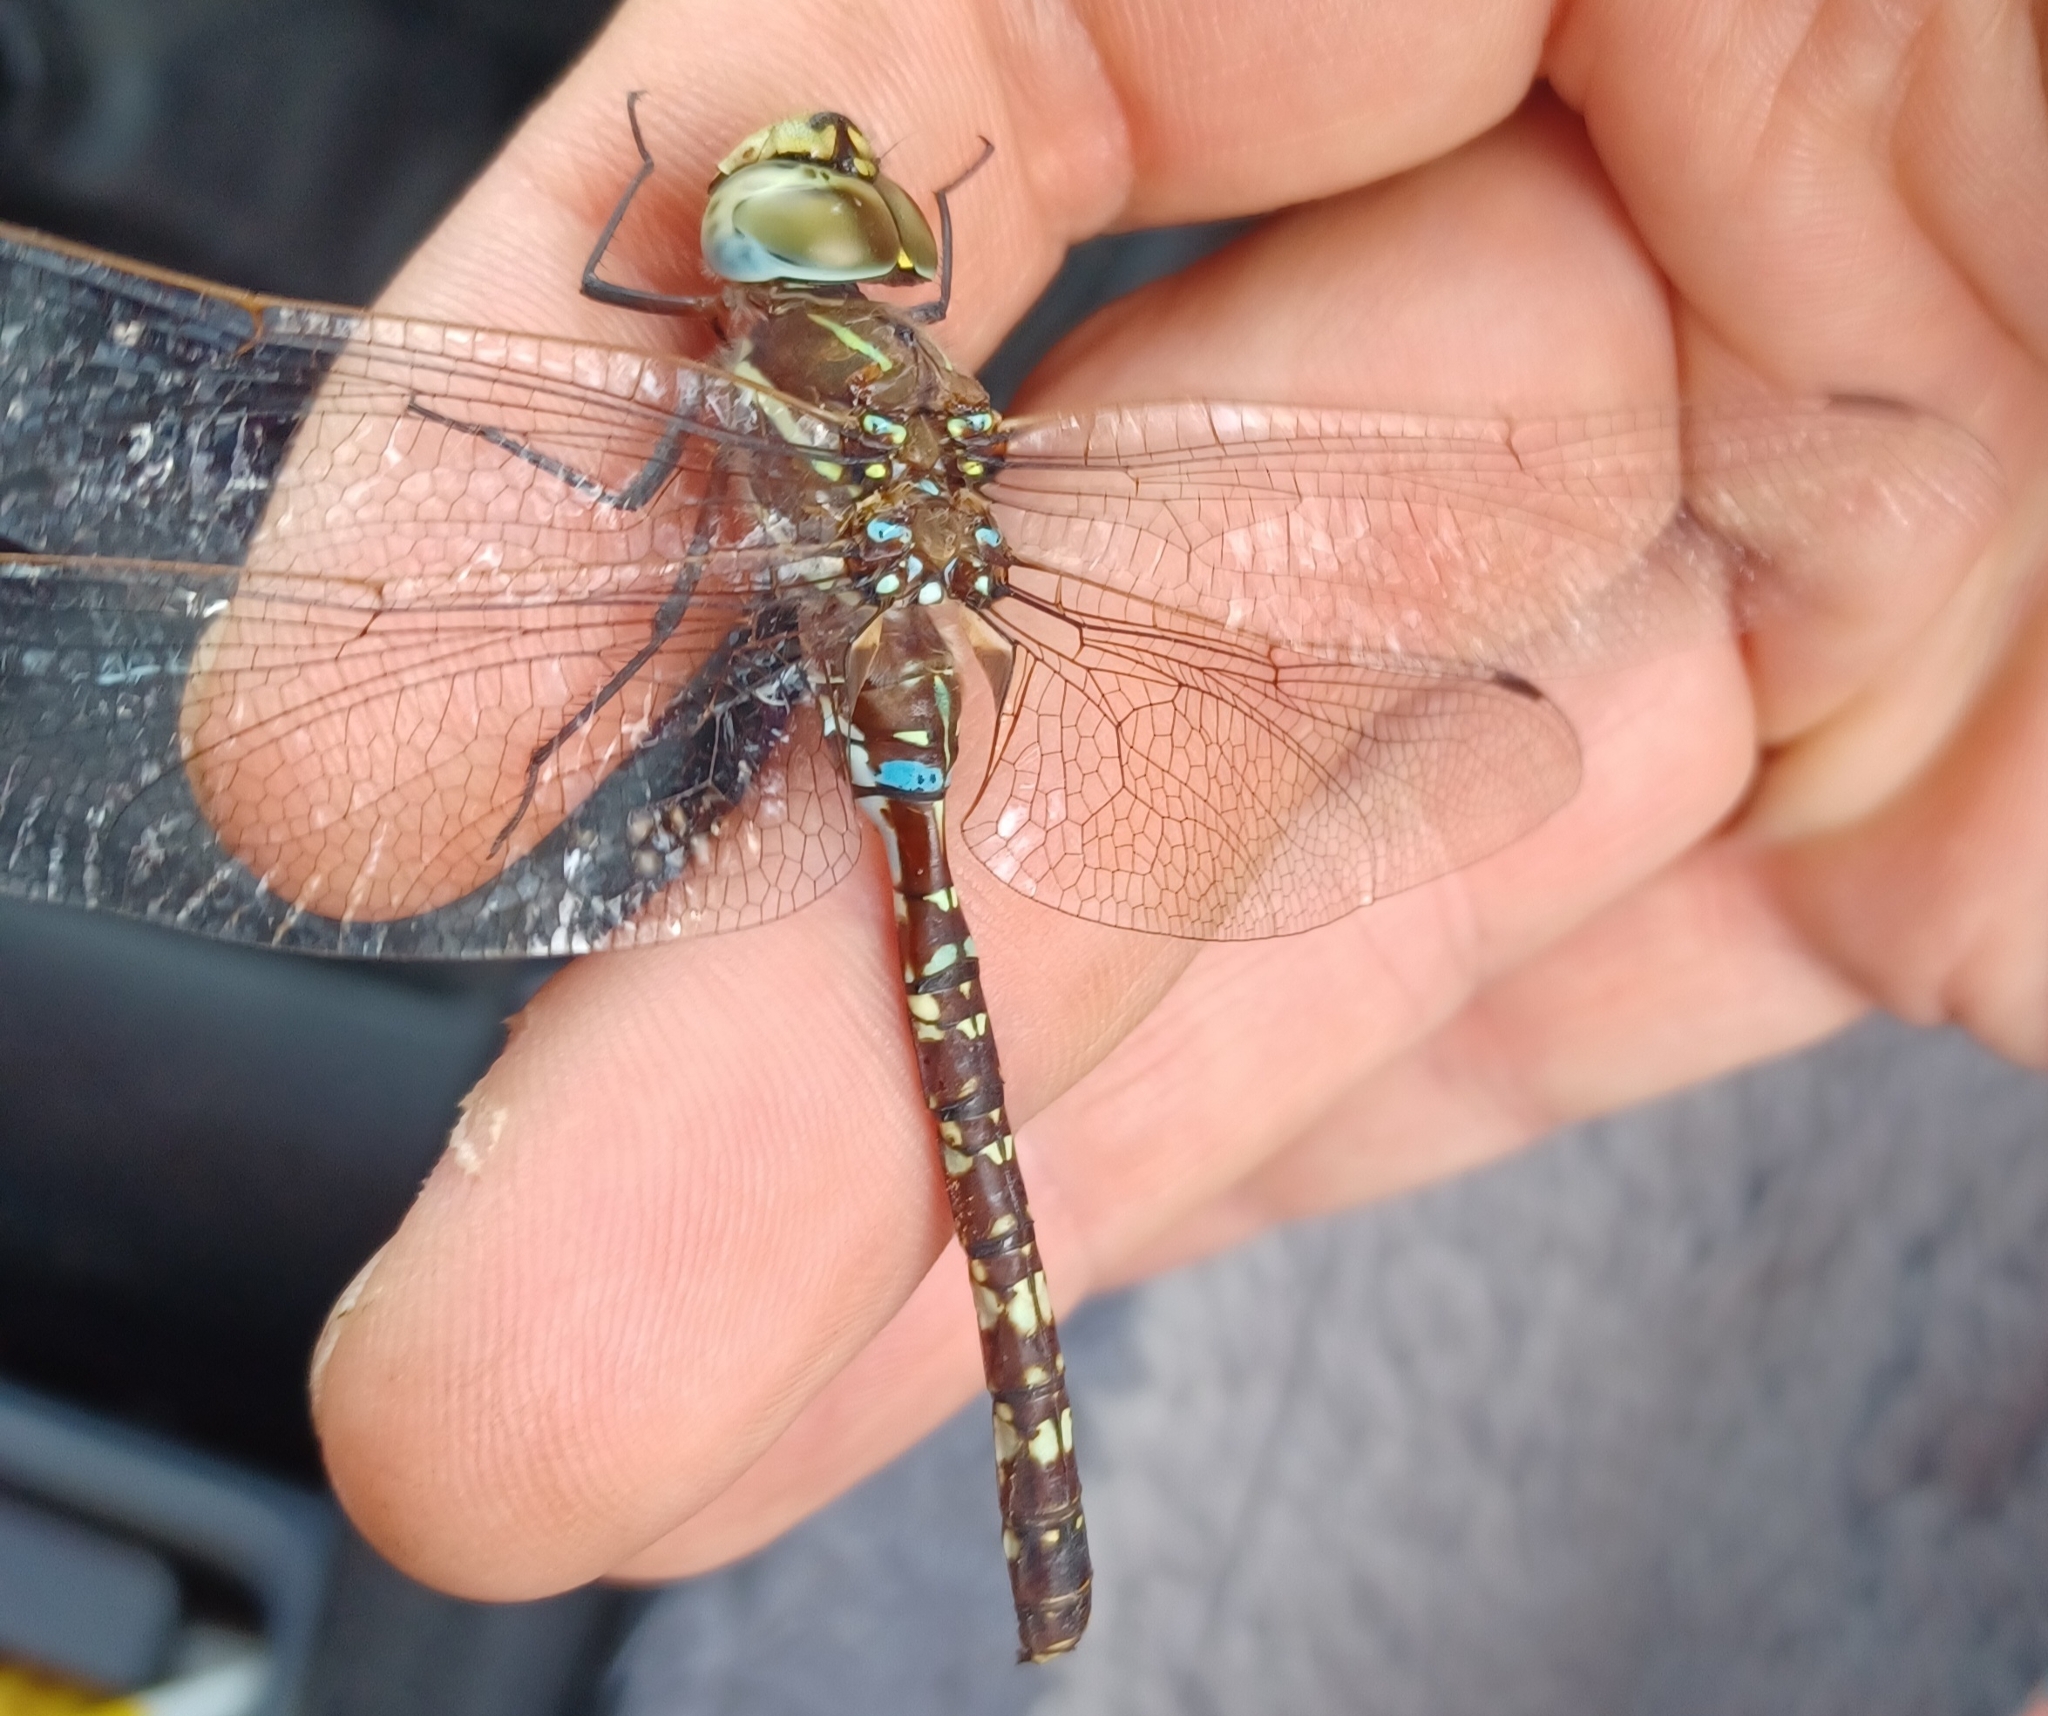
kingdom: Animalia
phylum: Arthropoda
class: Insecta
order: Odonata
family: Aeshnidae
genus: Aeshna
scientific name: Aeshna brevistyla
